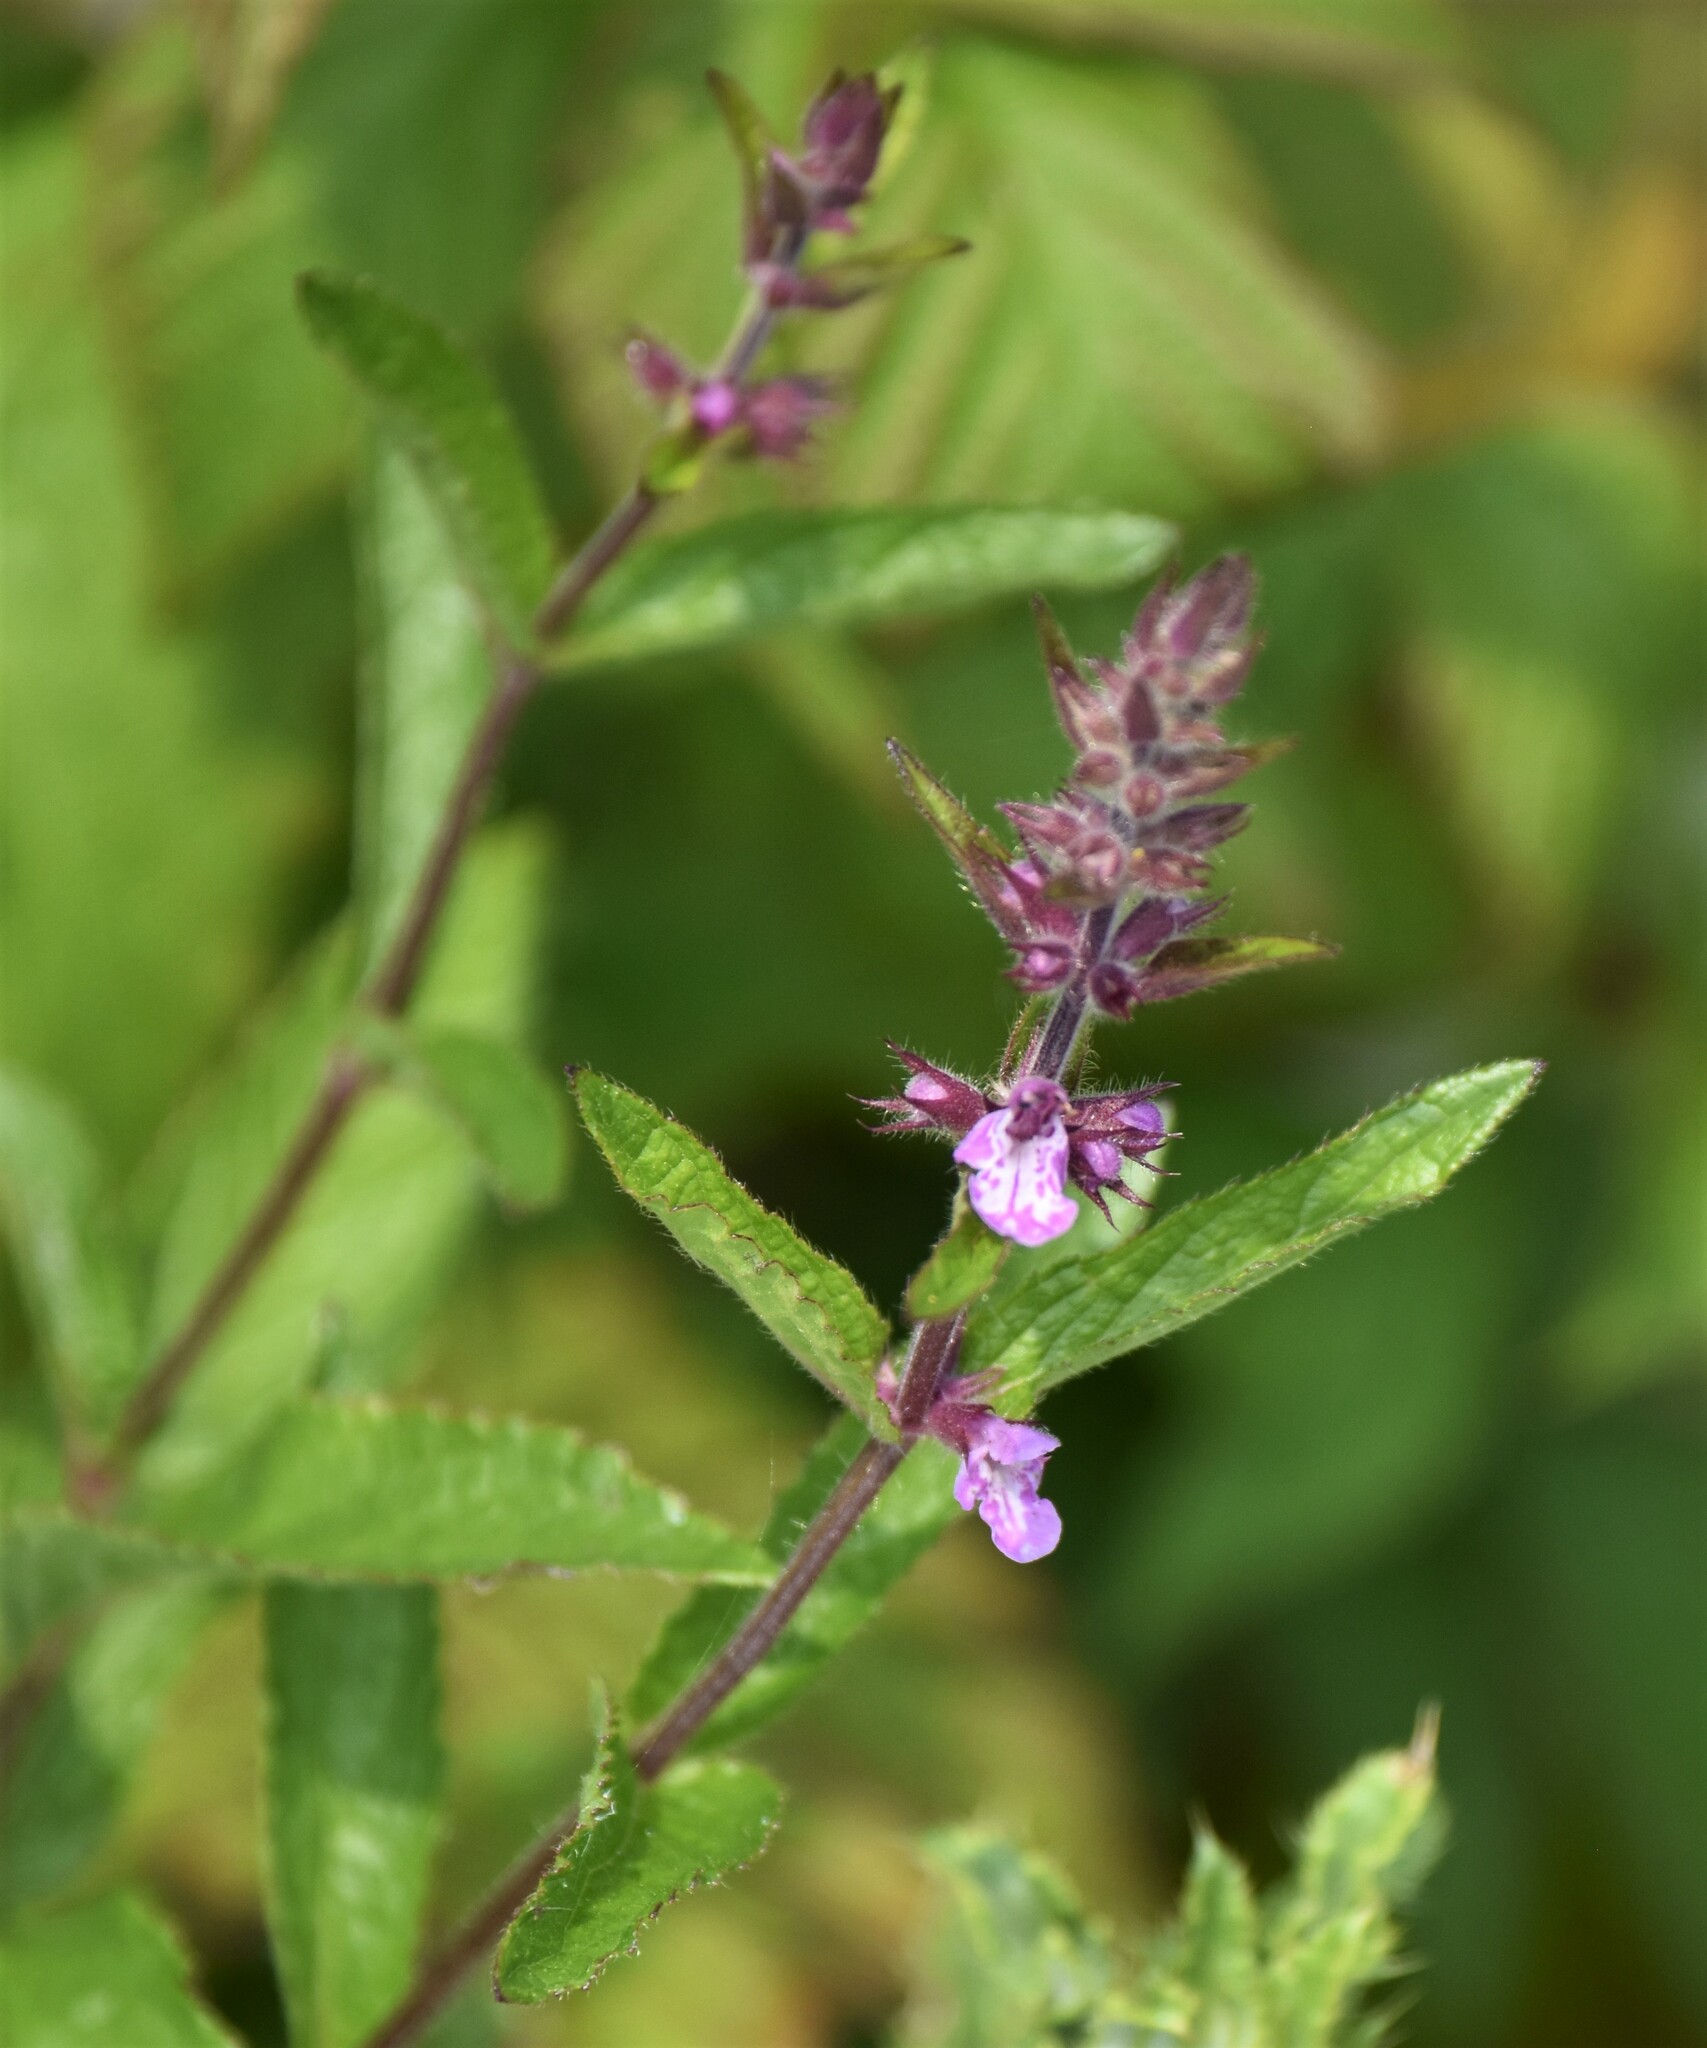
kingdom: Plantae
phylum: Tracheophyta
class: Magnoliopsida
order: Lamiales
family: Lamiaceae
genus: Stachys
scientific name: Stachys pilosa
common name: Hairy hedge-nettle
